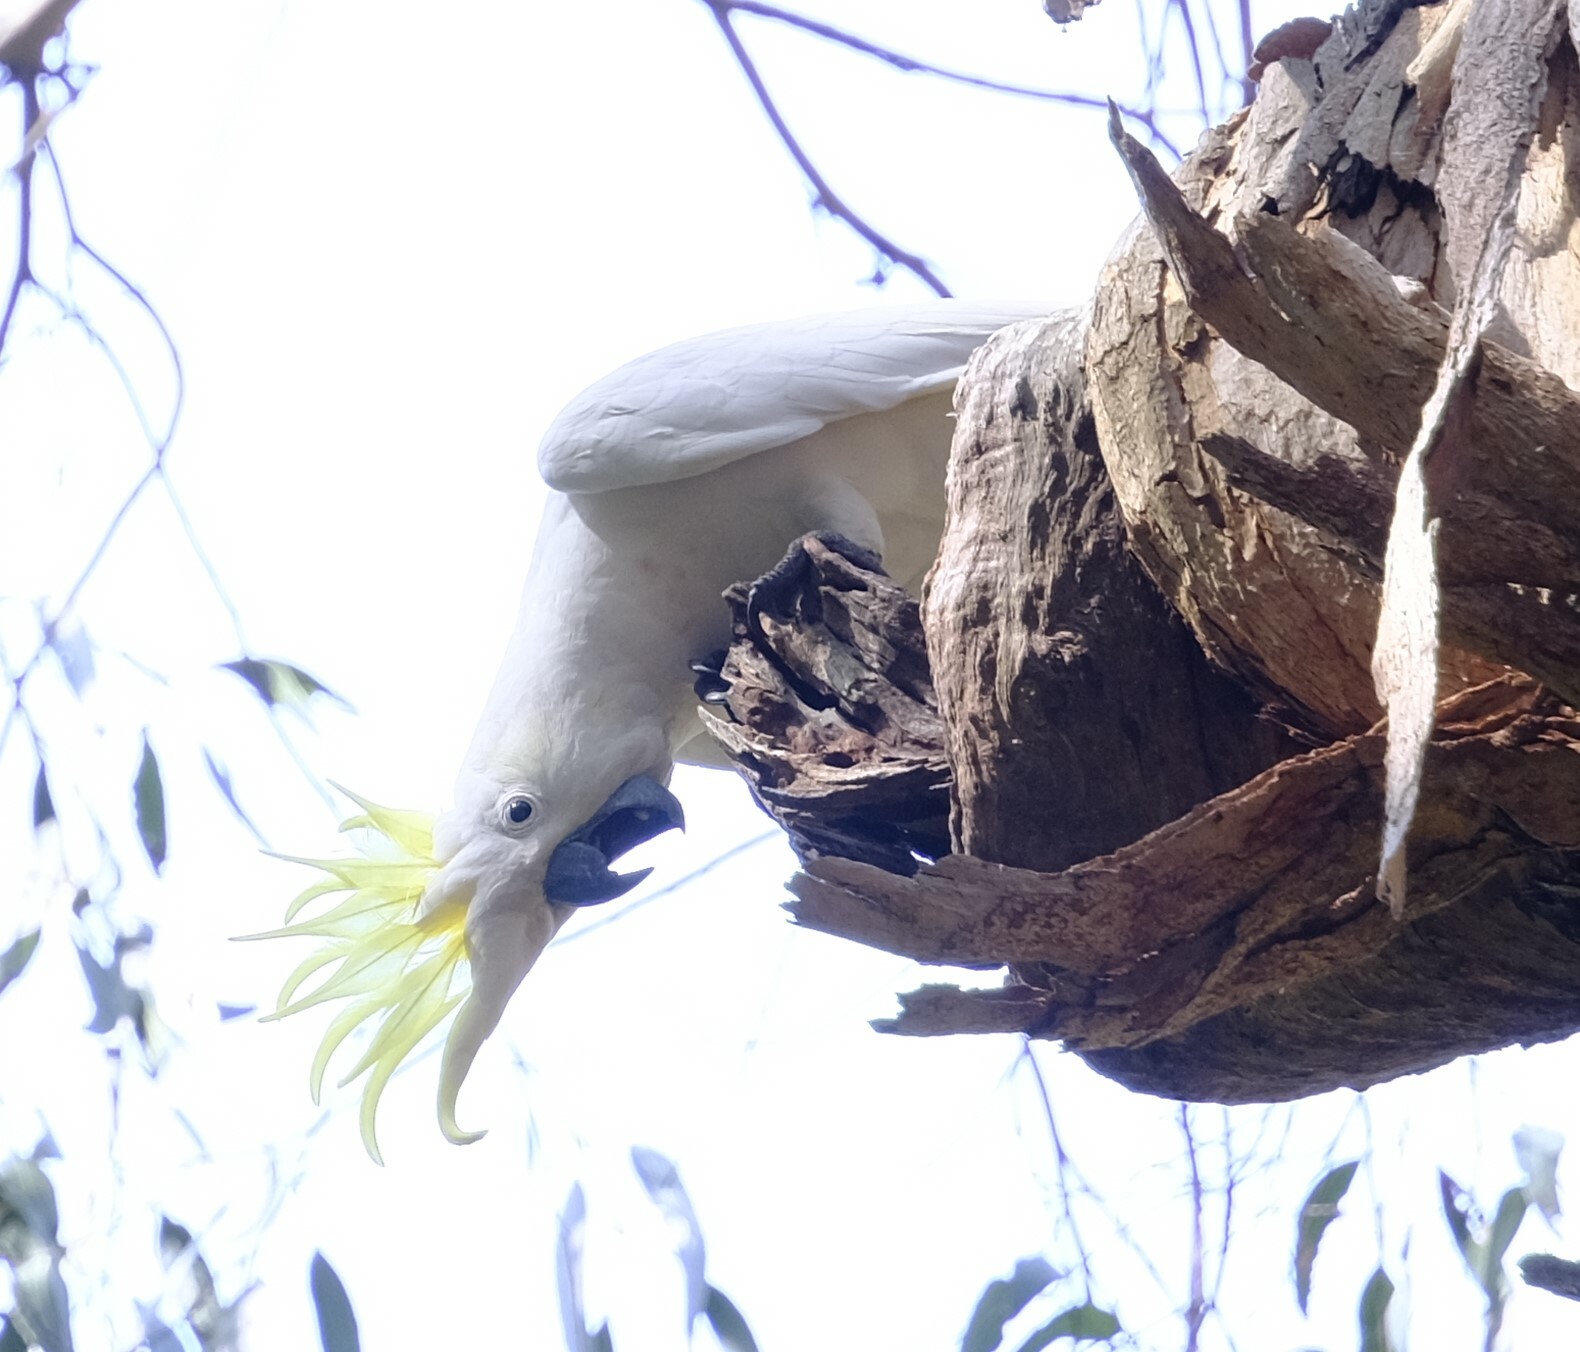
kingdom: Animalia
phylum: Chordata
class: Aves
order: Psittaciformes
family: Psittacidae
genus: Cacatua
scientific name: Cacatua galerita
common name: Sulphur-crested cockatoo
